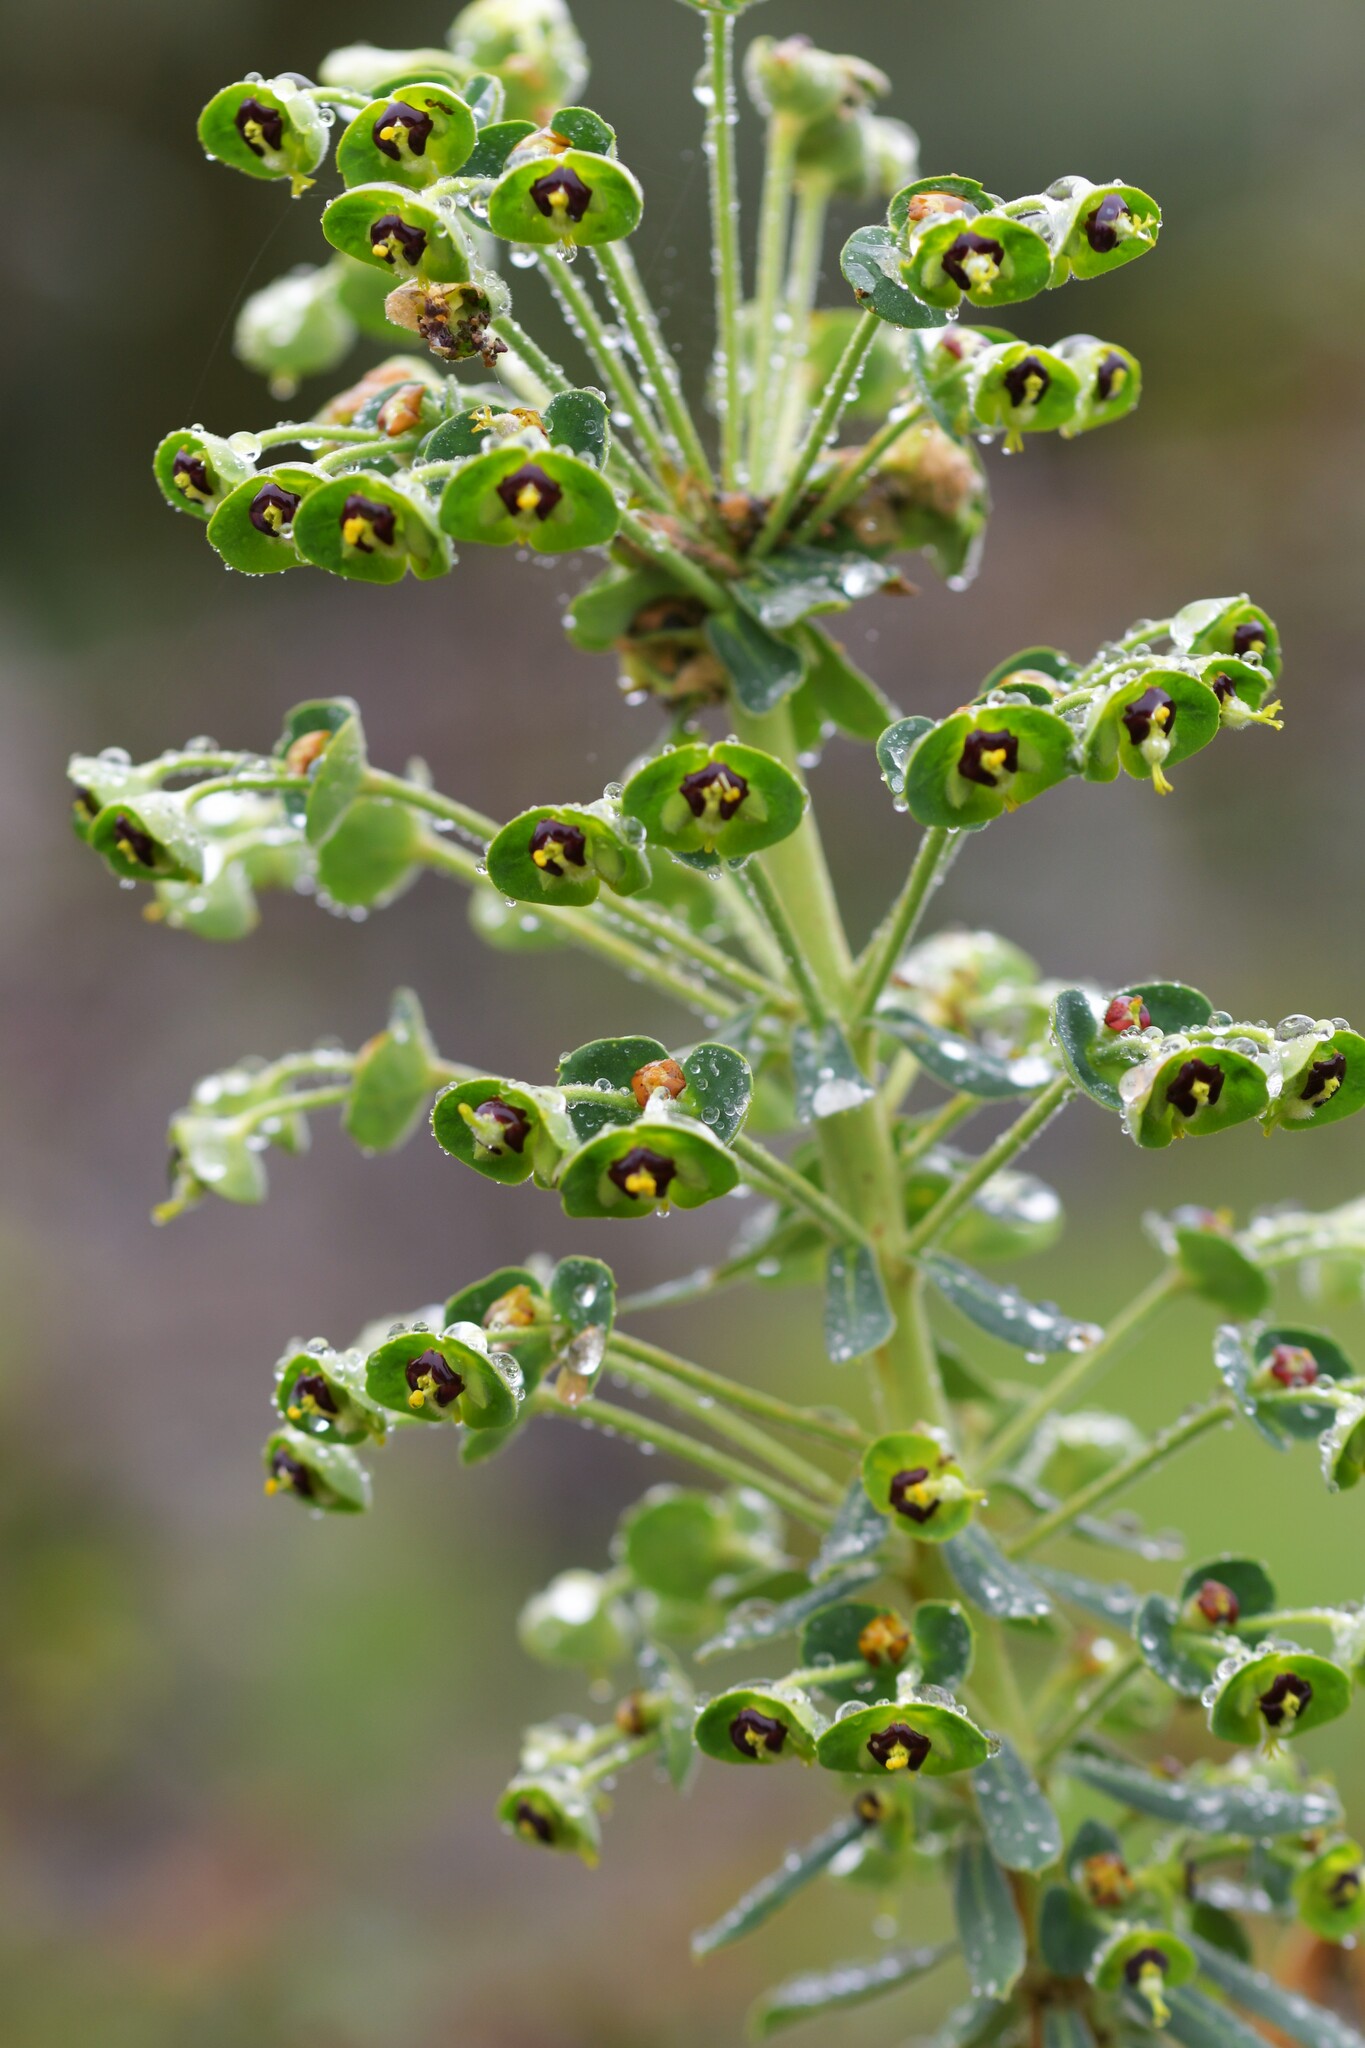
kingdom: Plantae
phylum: Tracheophyta
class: Magnoliopsida
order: Malpighiales
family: Euphorbiaceae
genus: Euphorbia
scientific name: Euphorbia characias
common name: Mediterranean spurge
